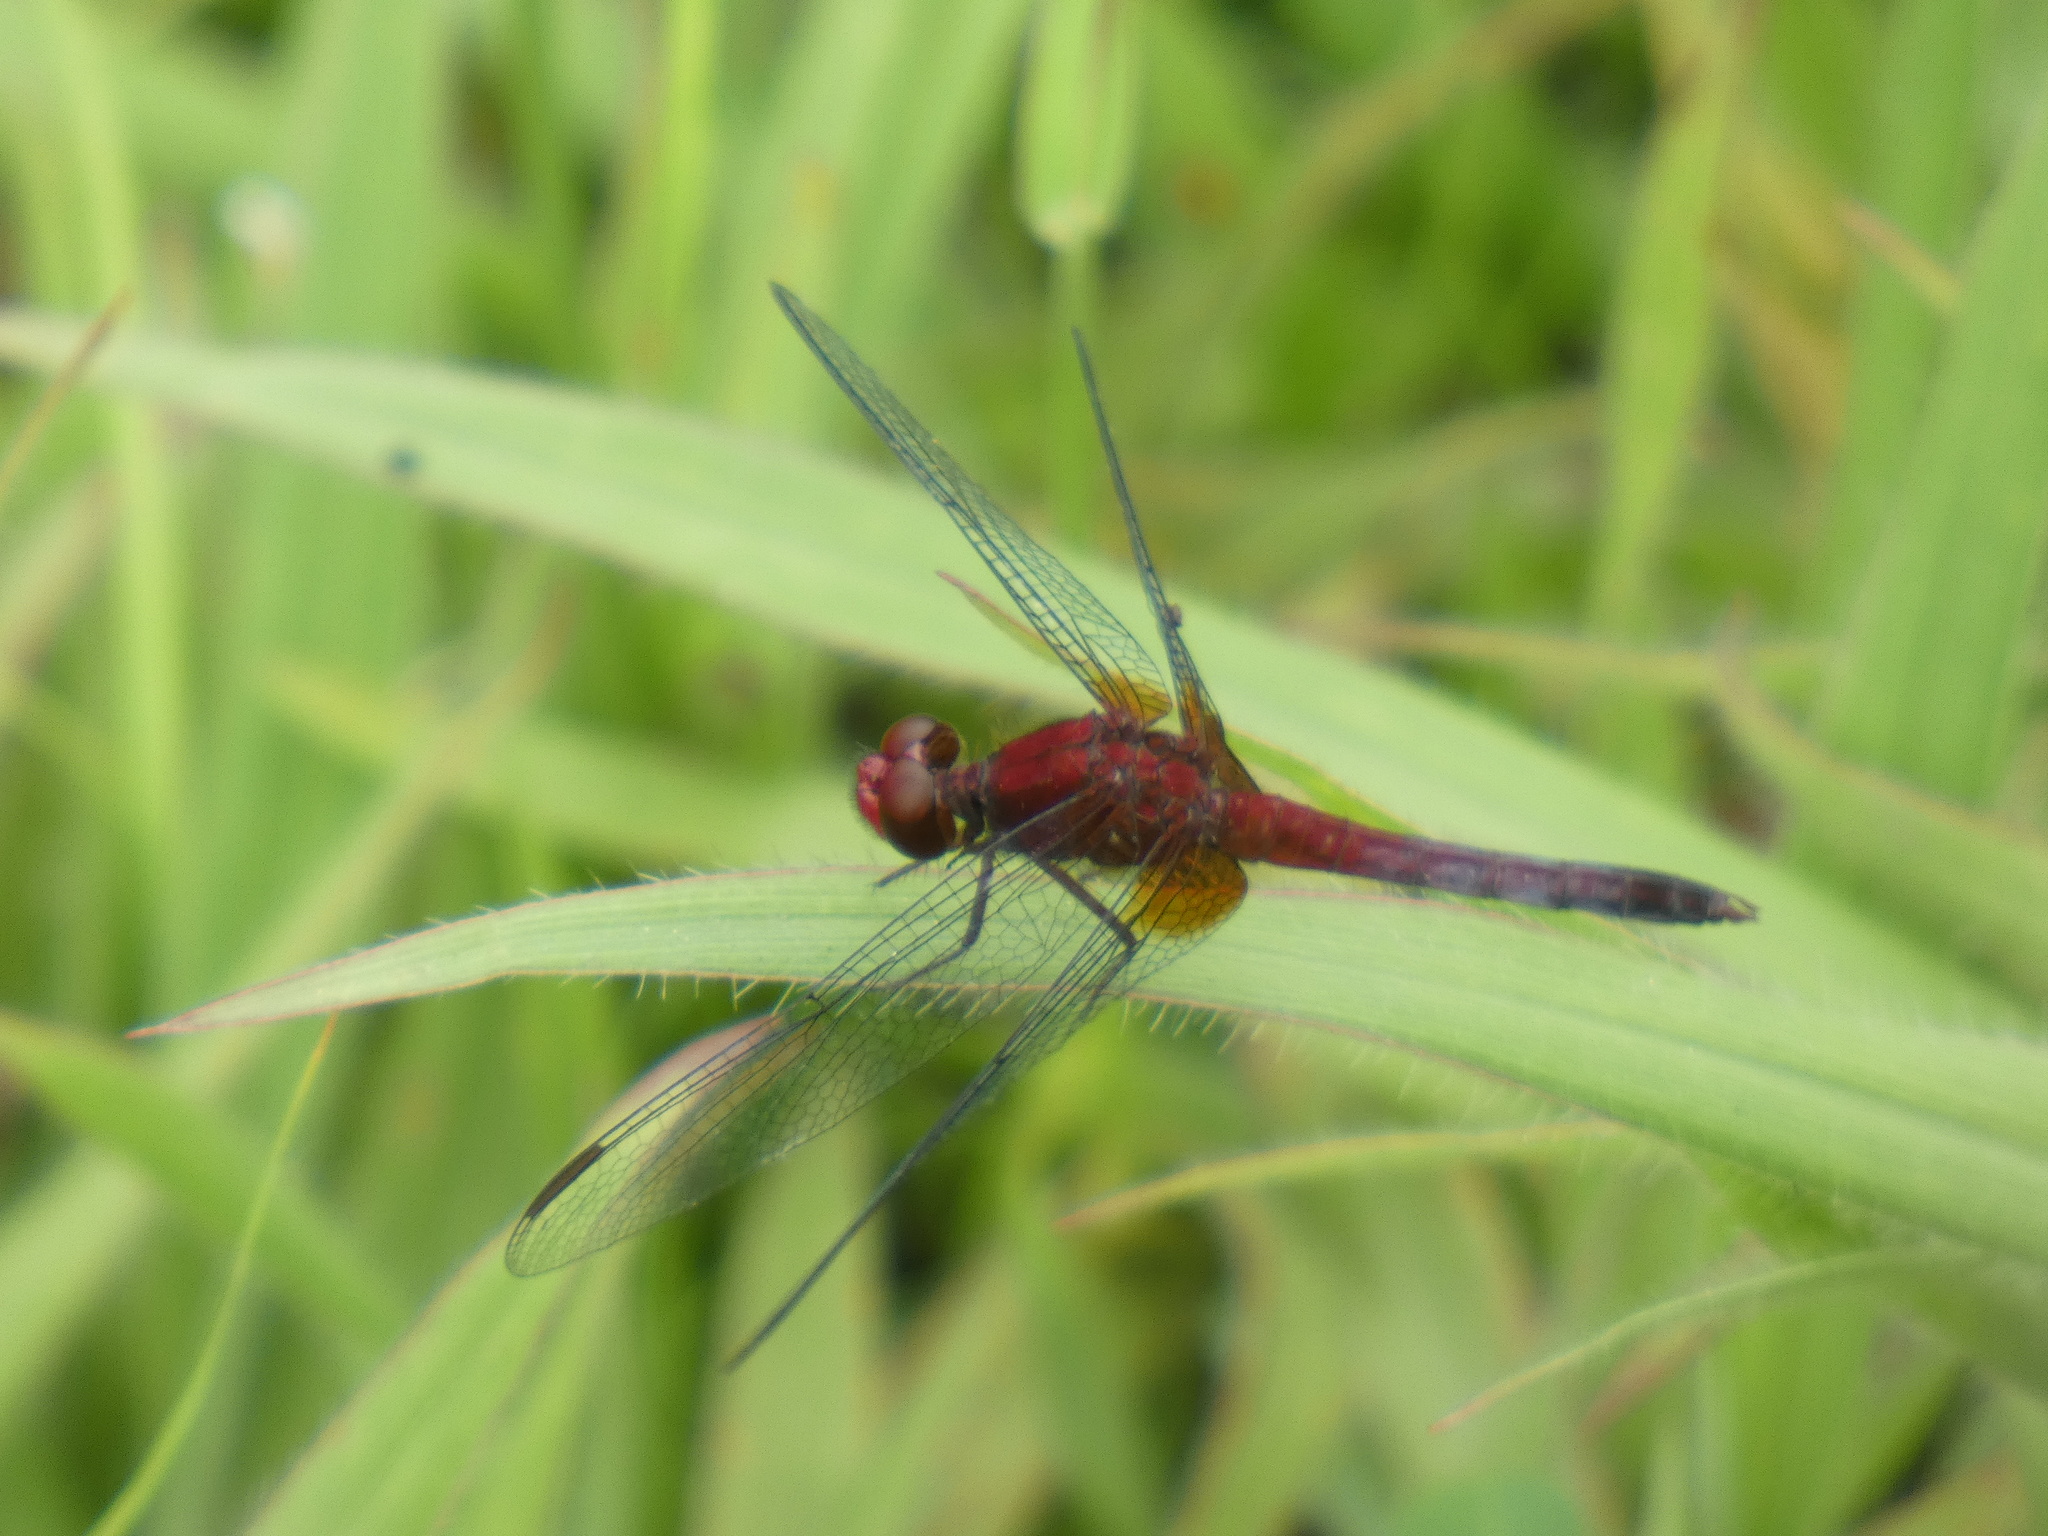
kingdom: Animalia
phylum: Arthropoda
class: Insecta
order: Odonata
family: Libellulidae
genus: Erythrodiplax
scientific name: Erythrodiplax fusca
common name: Red-faced dragonlet
